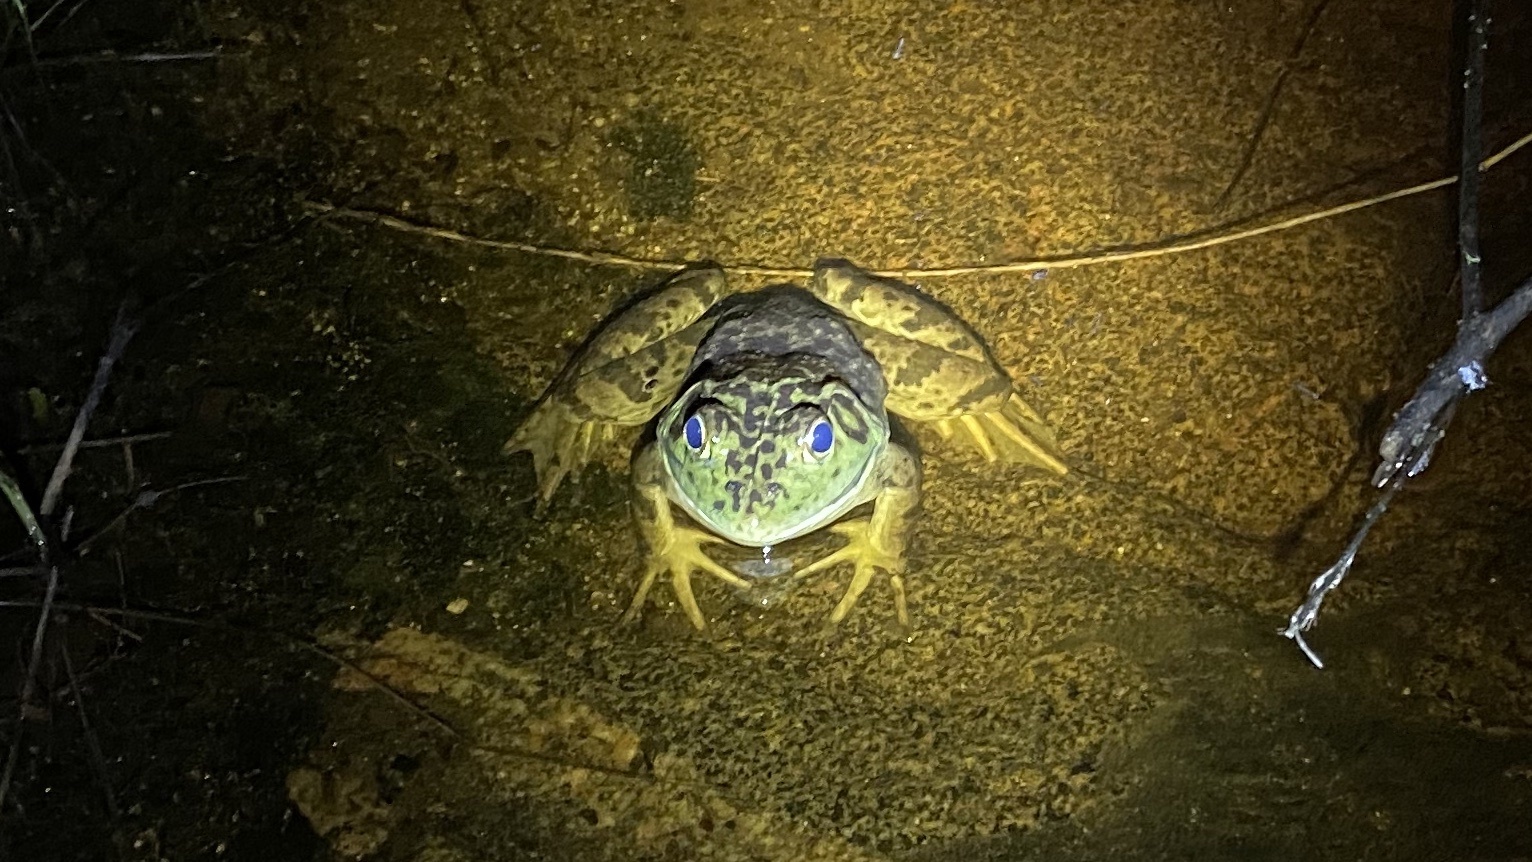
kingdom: Animalia
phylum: Chordata
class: Amphibia
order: Anura
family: Ranidae
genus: Lithobates
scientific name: Lithobates catesbeianus
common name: American bullfrog
